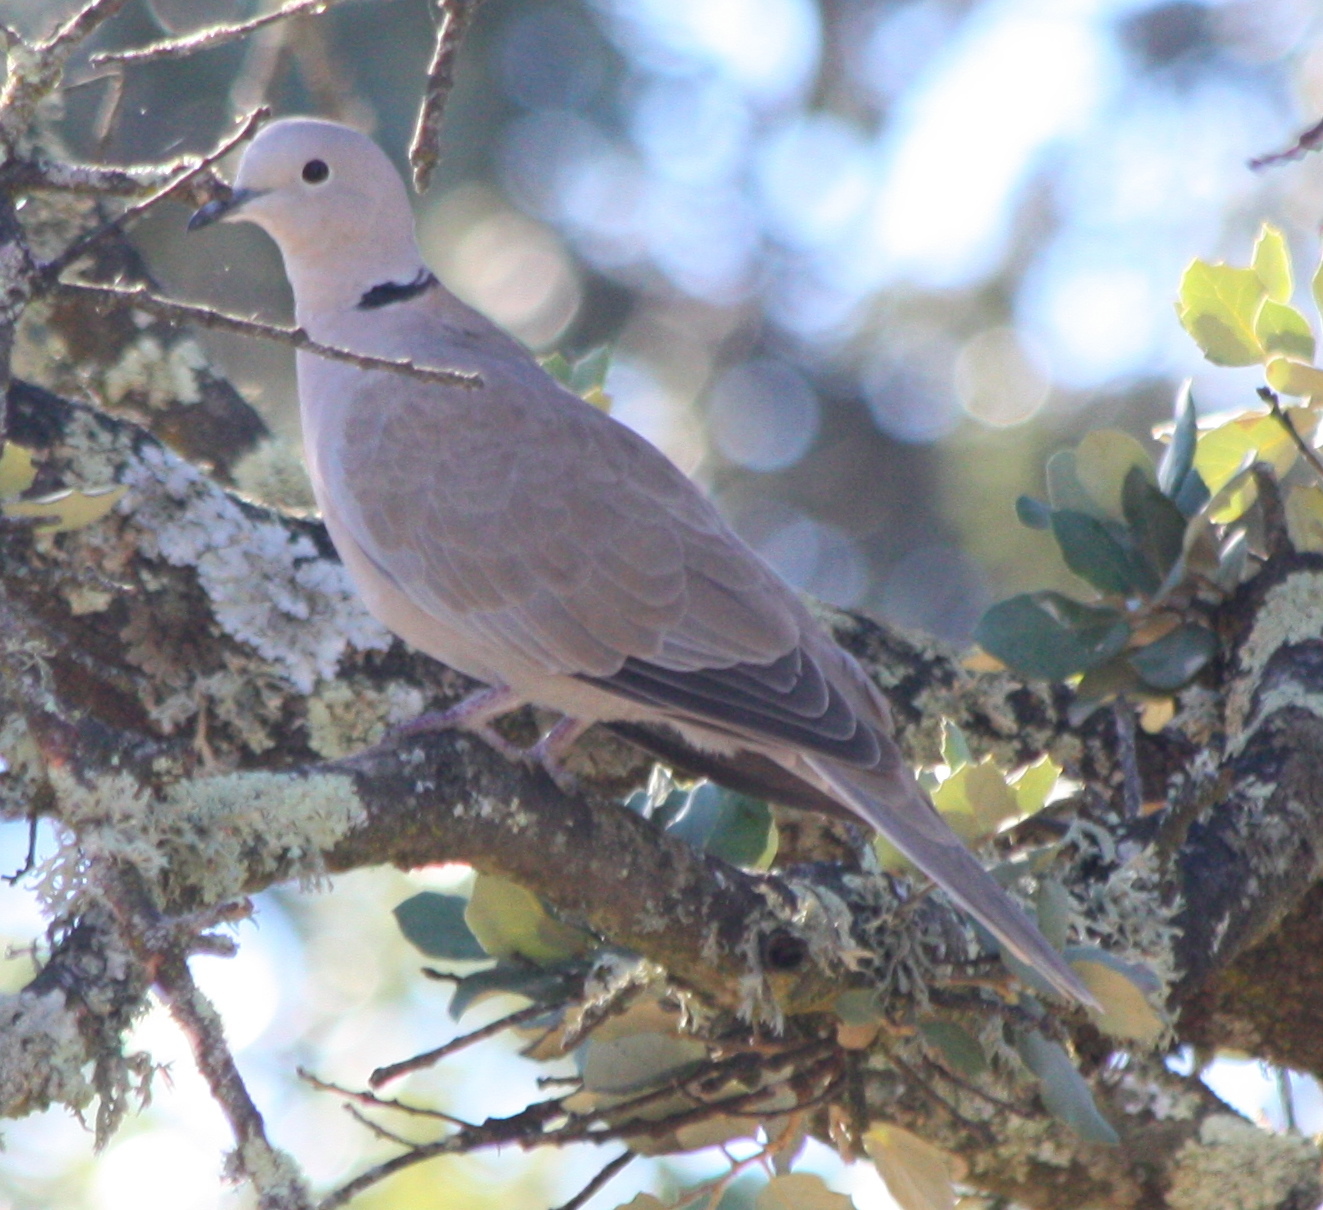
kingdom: Animalia
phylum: Chordata
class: Aves
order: Columbiformes
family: Columbidae
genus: Streptopelia
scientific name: Streptopelia decaocto
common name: Eurasian collared dove
